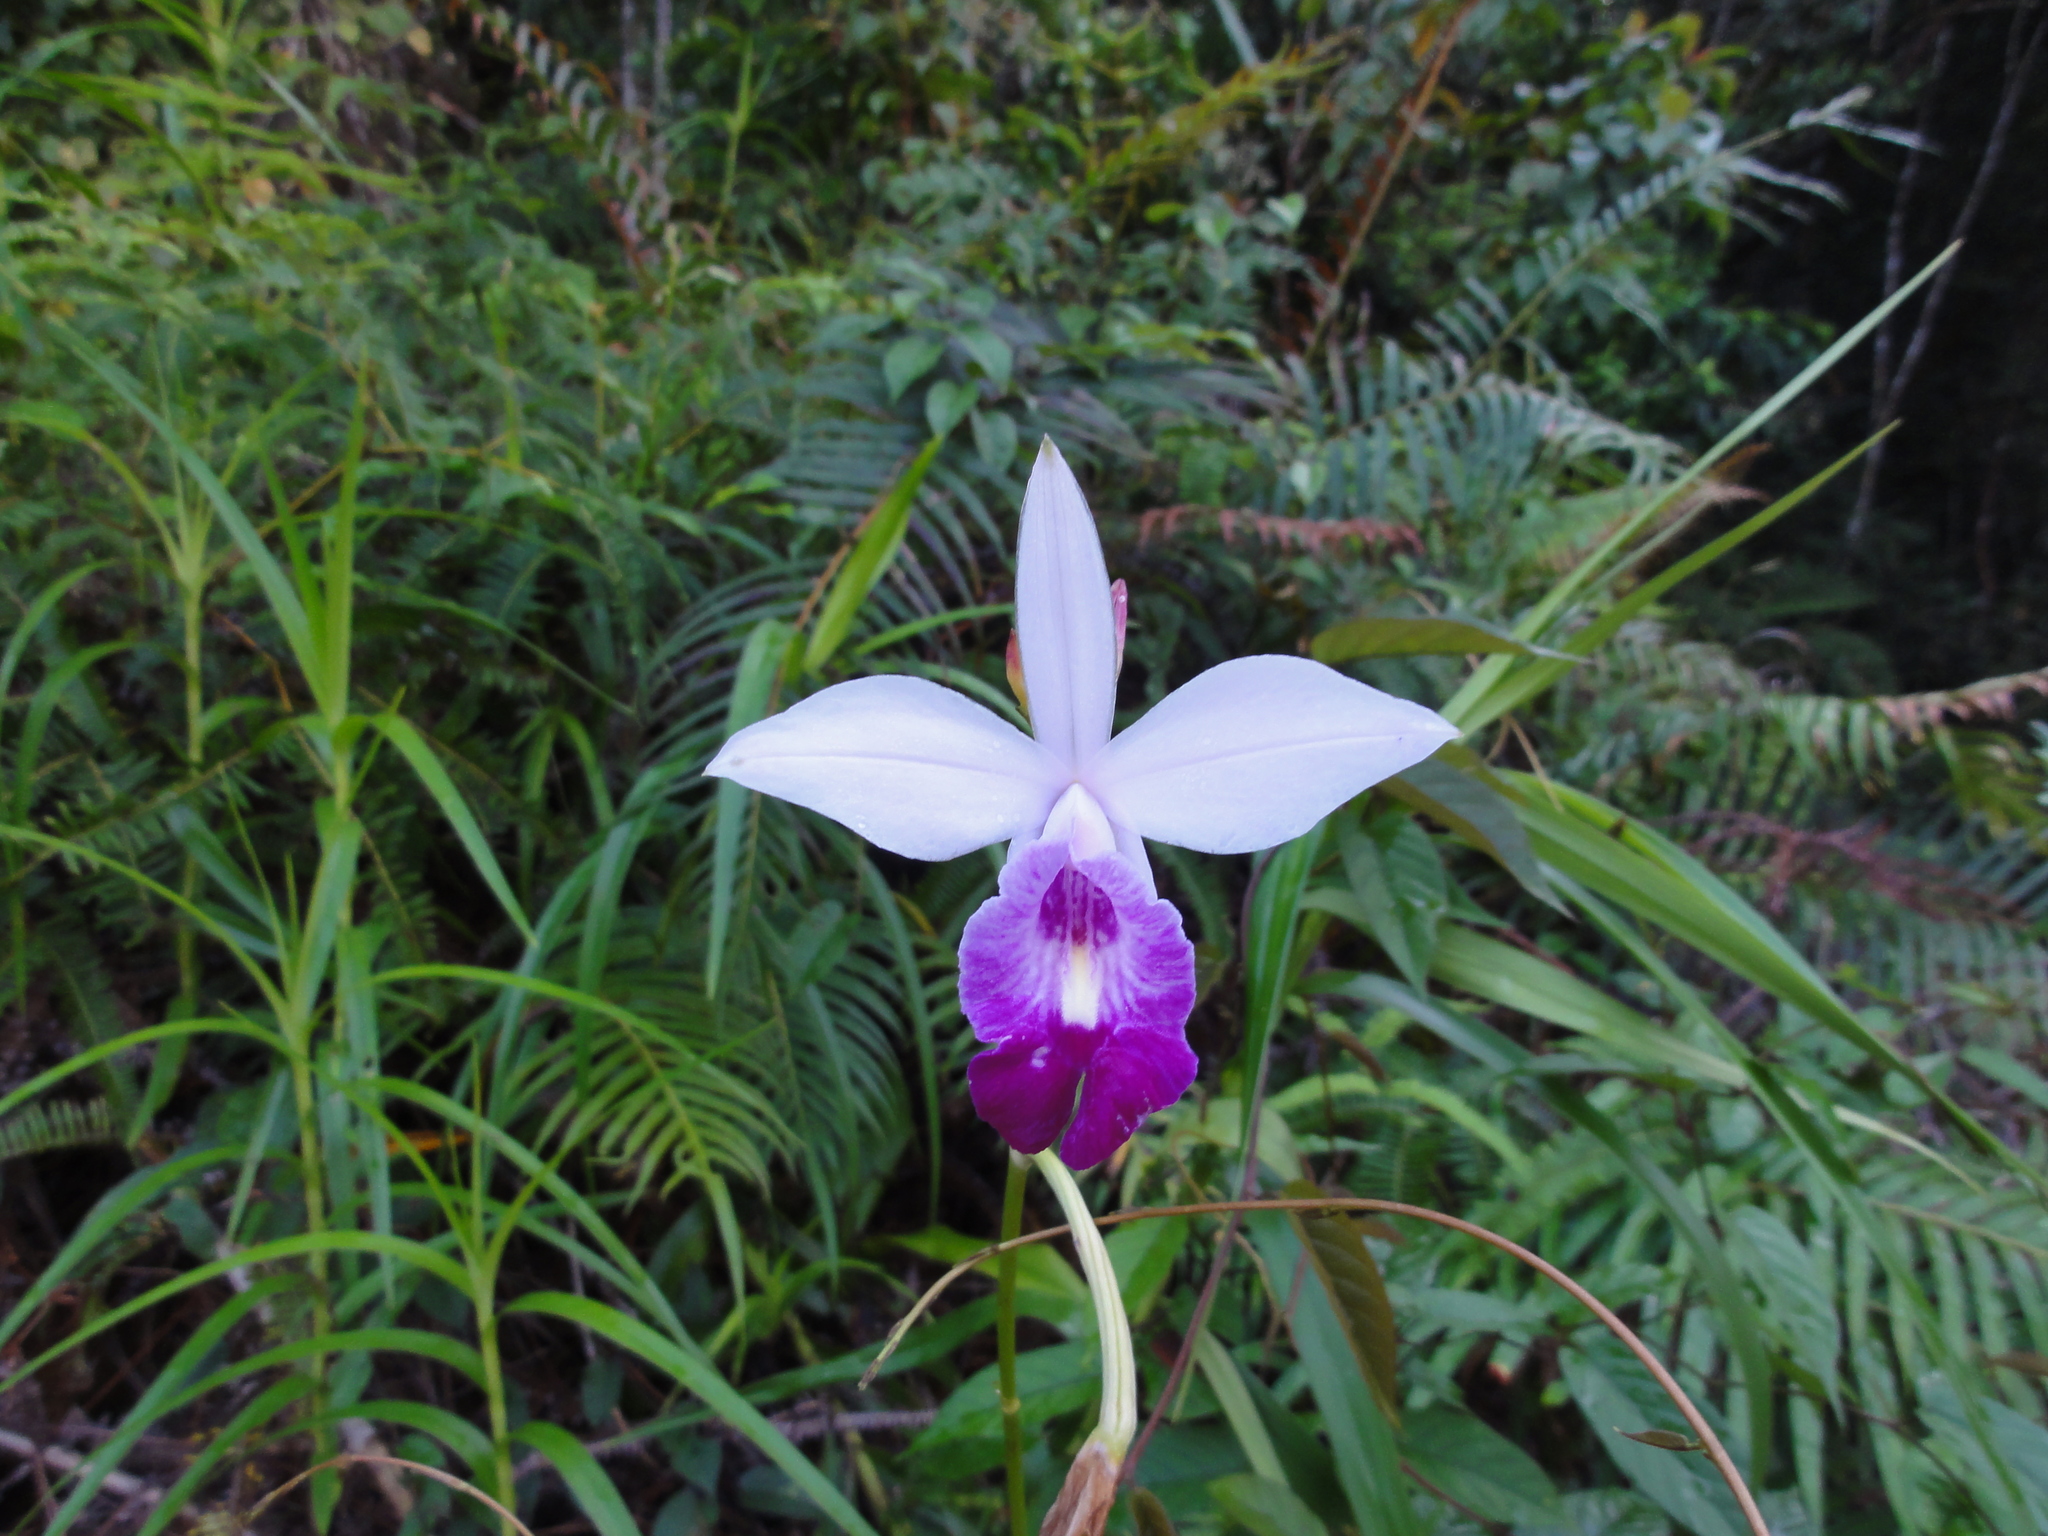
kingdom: Plantae
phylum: Tracheophyta
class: Liliopsida
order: Asparagales
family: Orchidaceae
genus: Arundina
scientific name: Arundina graminifolia
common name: Bamboo orchid
